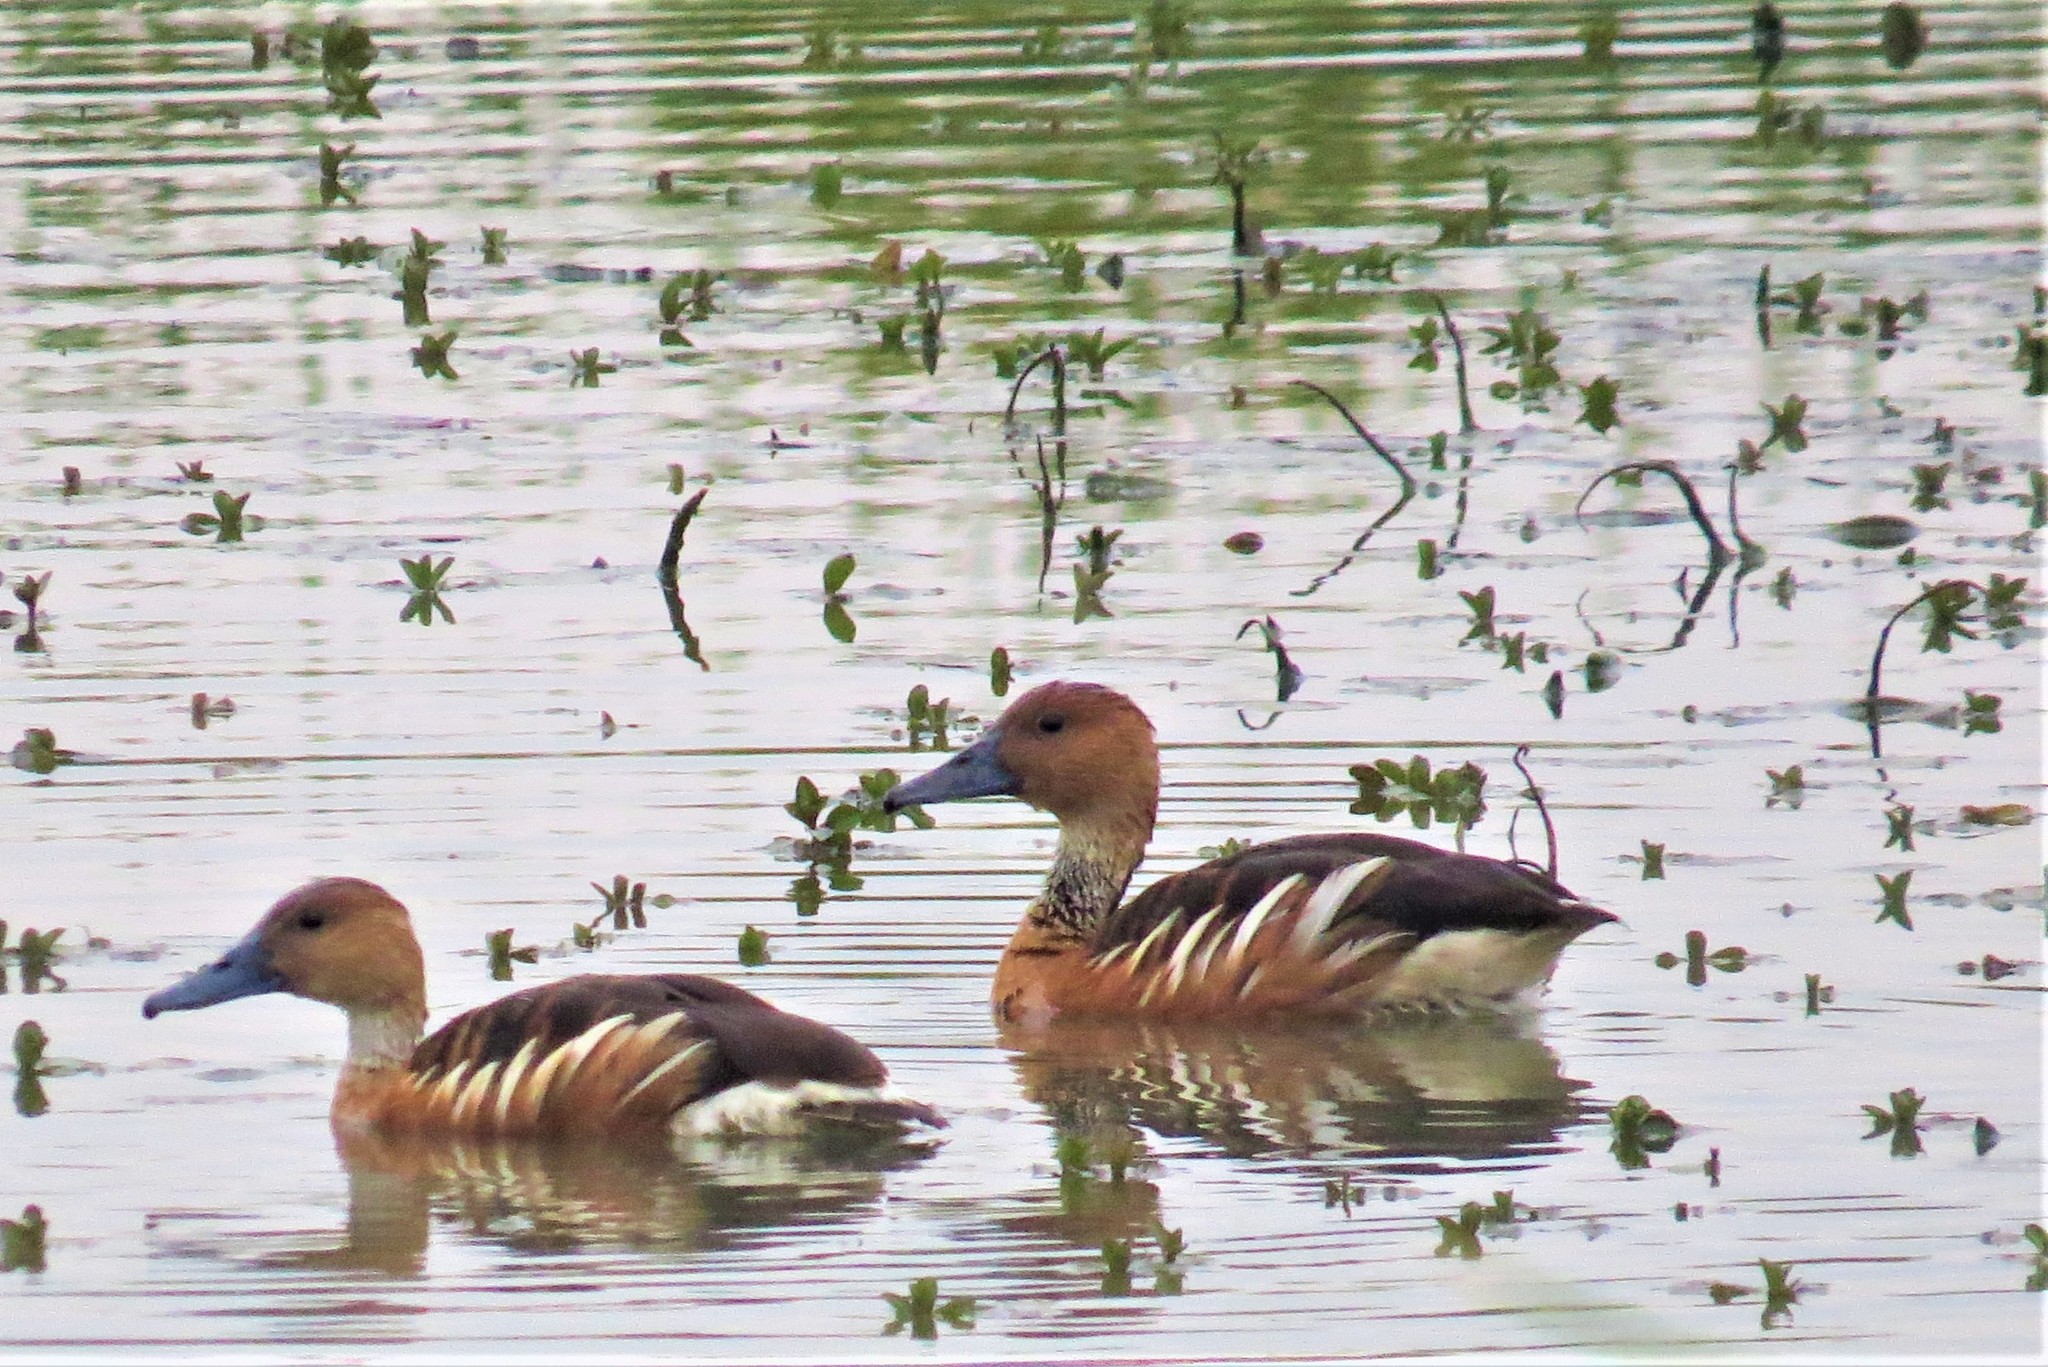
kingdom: Animalia
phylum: Chordata
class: Aves
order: Anseriformes
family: Anatidae
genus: Dendrocygna
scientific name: Dendrocygna bicolor
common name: Fulvous whistling duck
